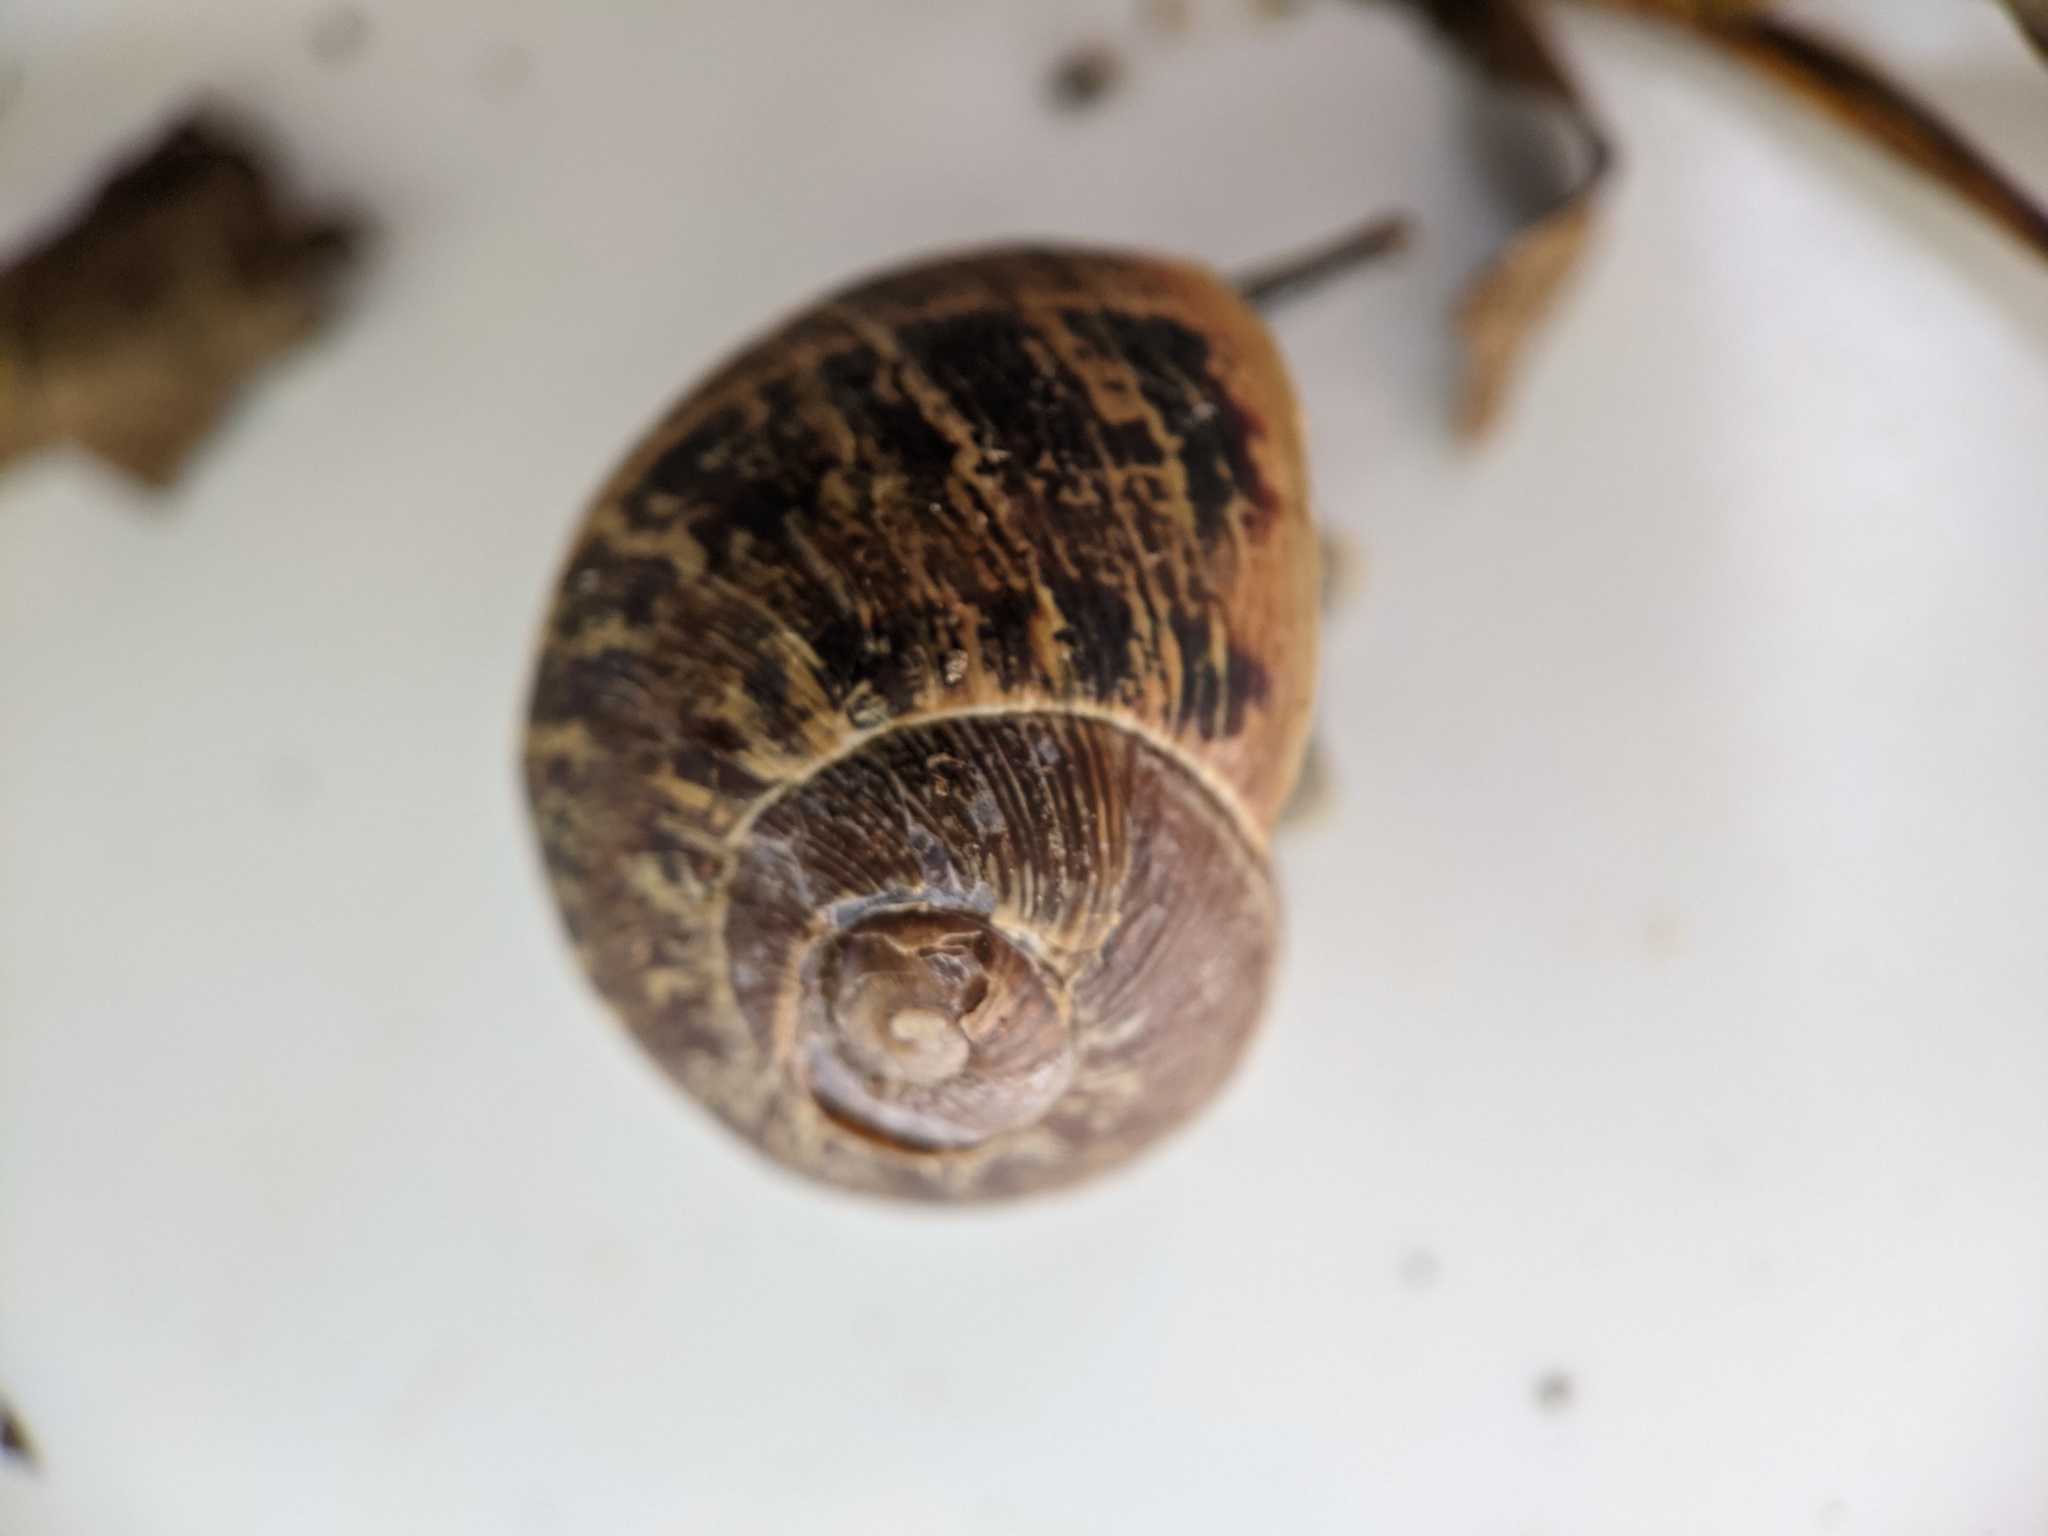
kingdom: Animalia
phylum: Mollusca
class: Gastropoda
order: Stylommatophora
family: Helicidae
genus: Cornu
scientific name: Cornu aspersum
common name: Brown garden snail
